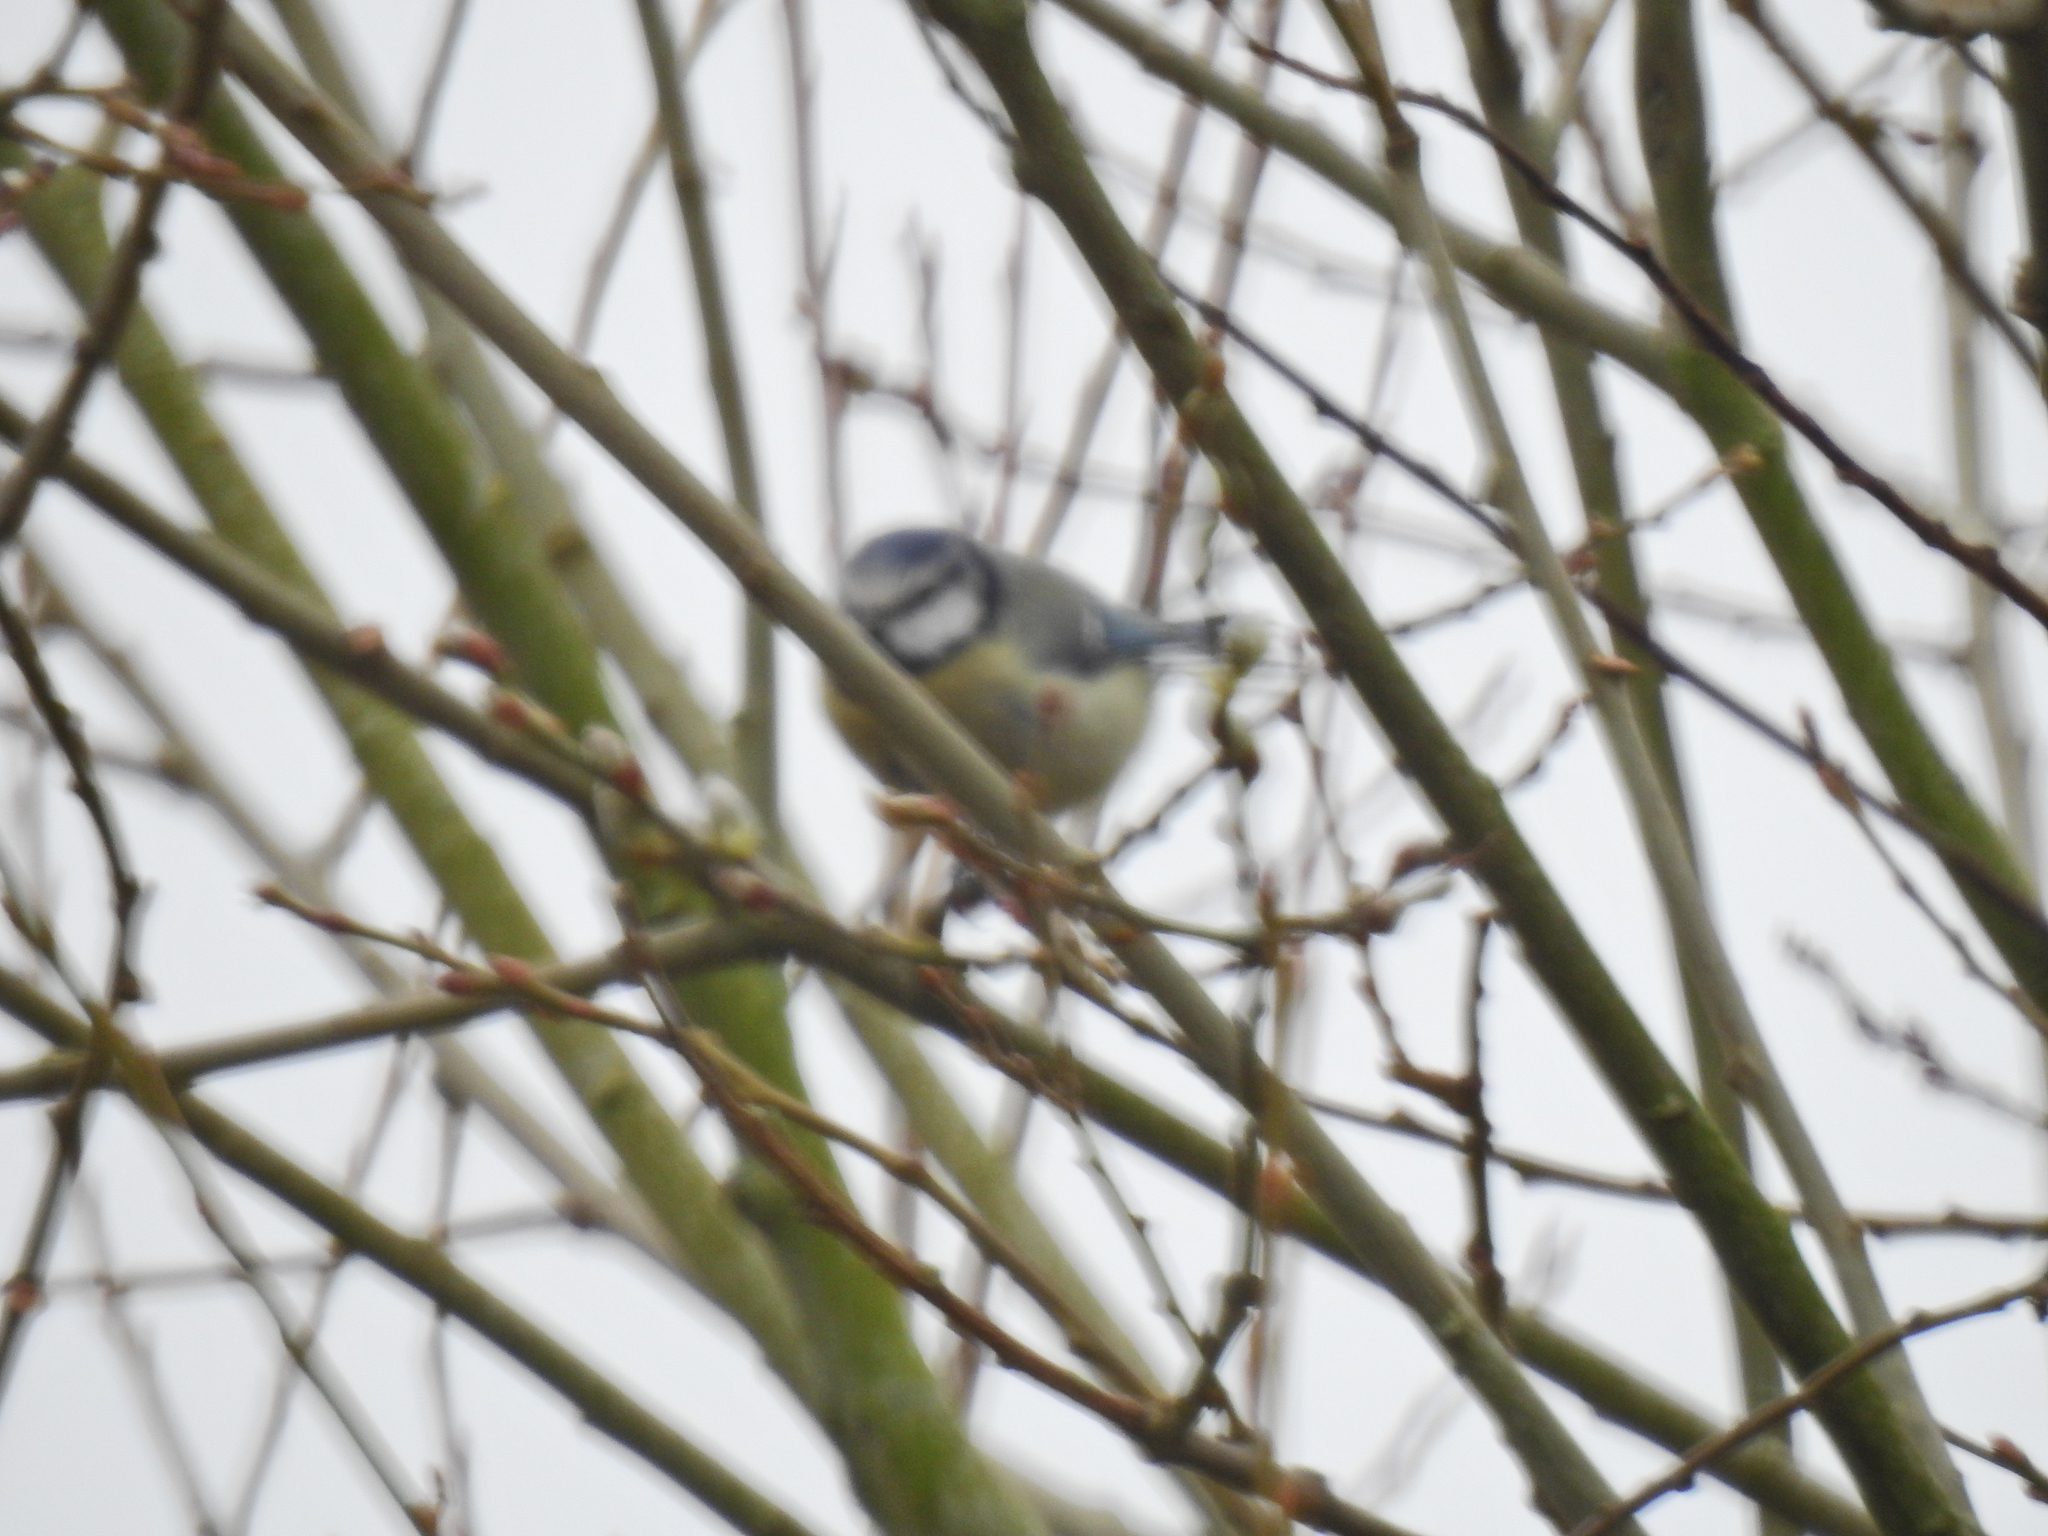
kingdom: Animalia
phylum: Chordata
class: Aves
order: Passeriformes
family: Paridae
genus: Cyanistes
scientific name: Cyanistes caeruleus
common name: Eurasian blue tit
